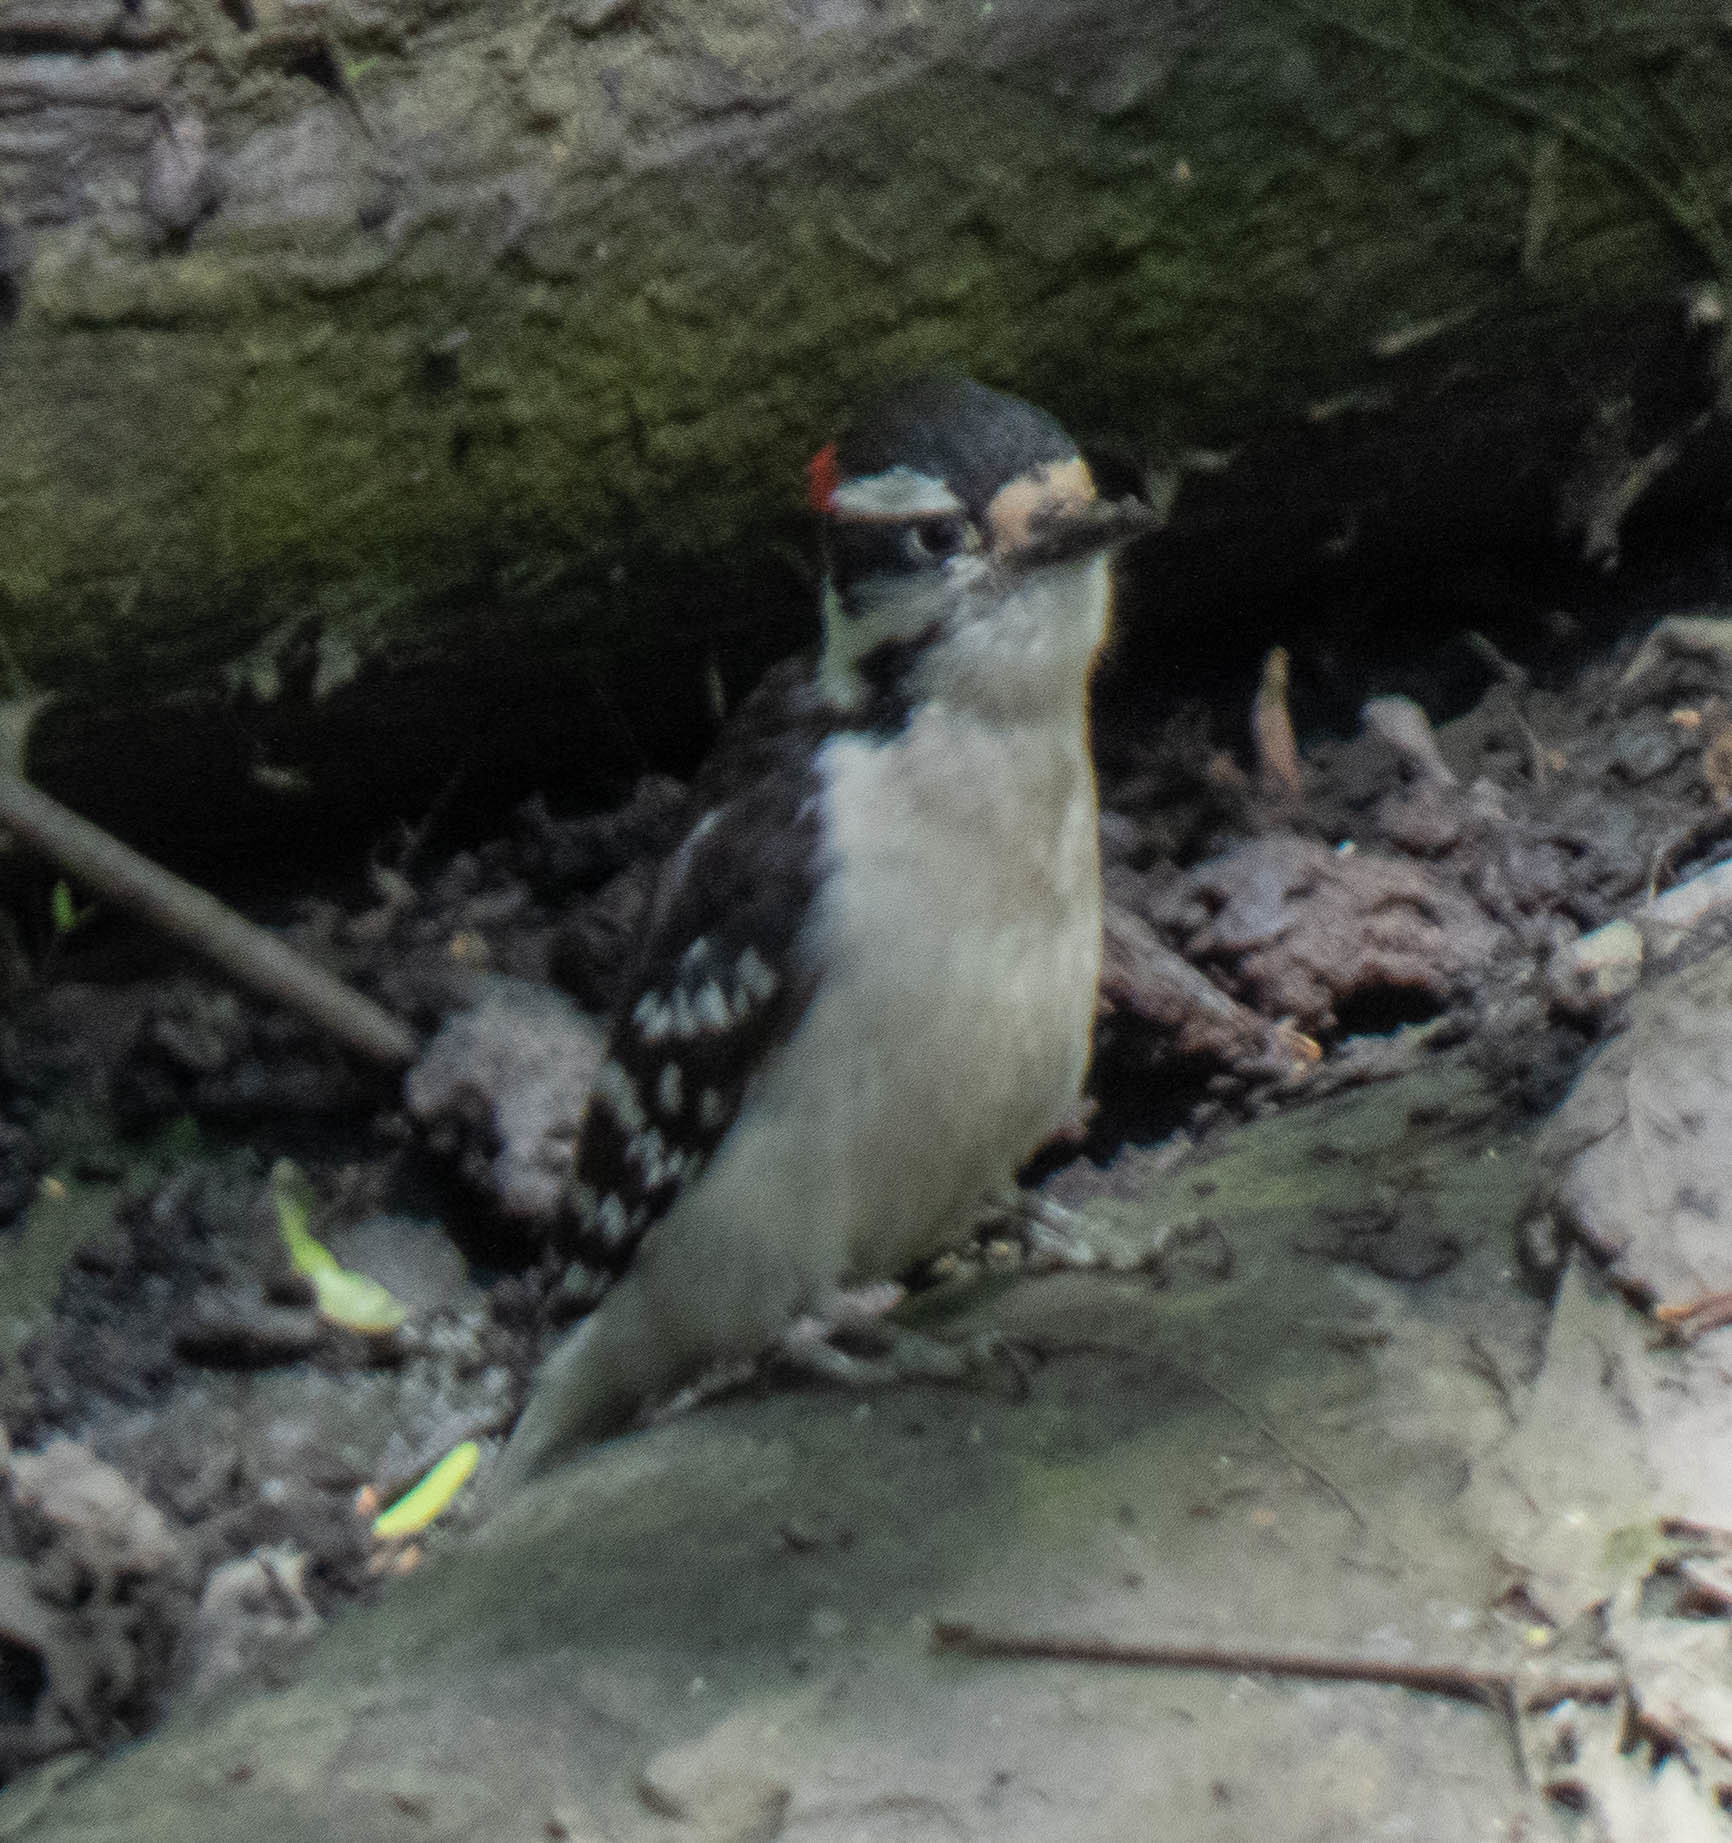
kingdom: Animalia
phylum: Chordata
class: Aves
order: Piciformes
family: Picidae
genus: Dryobates
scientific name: Dryobates pubescens
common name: Downy woodpecker
